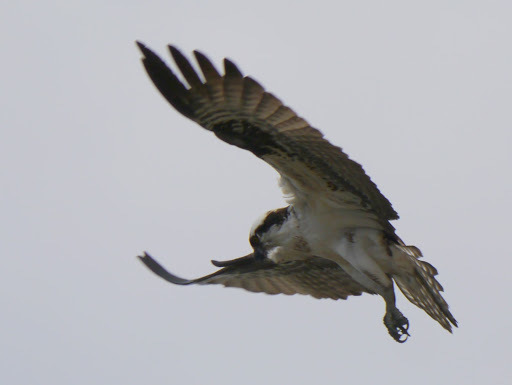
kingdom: Animalia
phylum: Chordata
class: Aves
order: Accipitriformes
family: Pandionidae
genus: Pandion
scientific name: Pandion haliaetus
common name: Osprey
